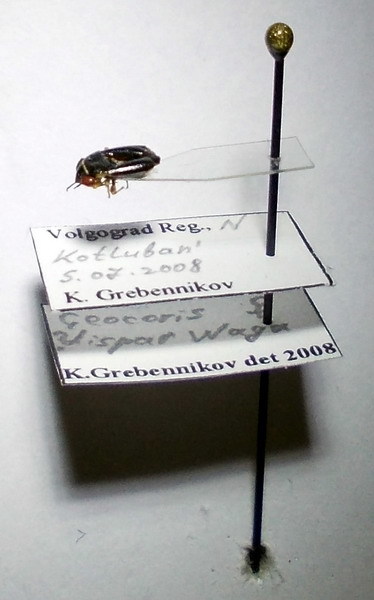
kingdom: Animalia
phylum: Arthropoda
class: Insecta
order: Hemiptera
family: Geocoridae
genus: Geocoris
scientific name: Geocoris dispar
